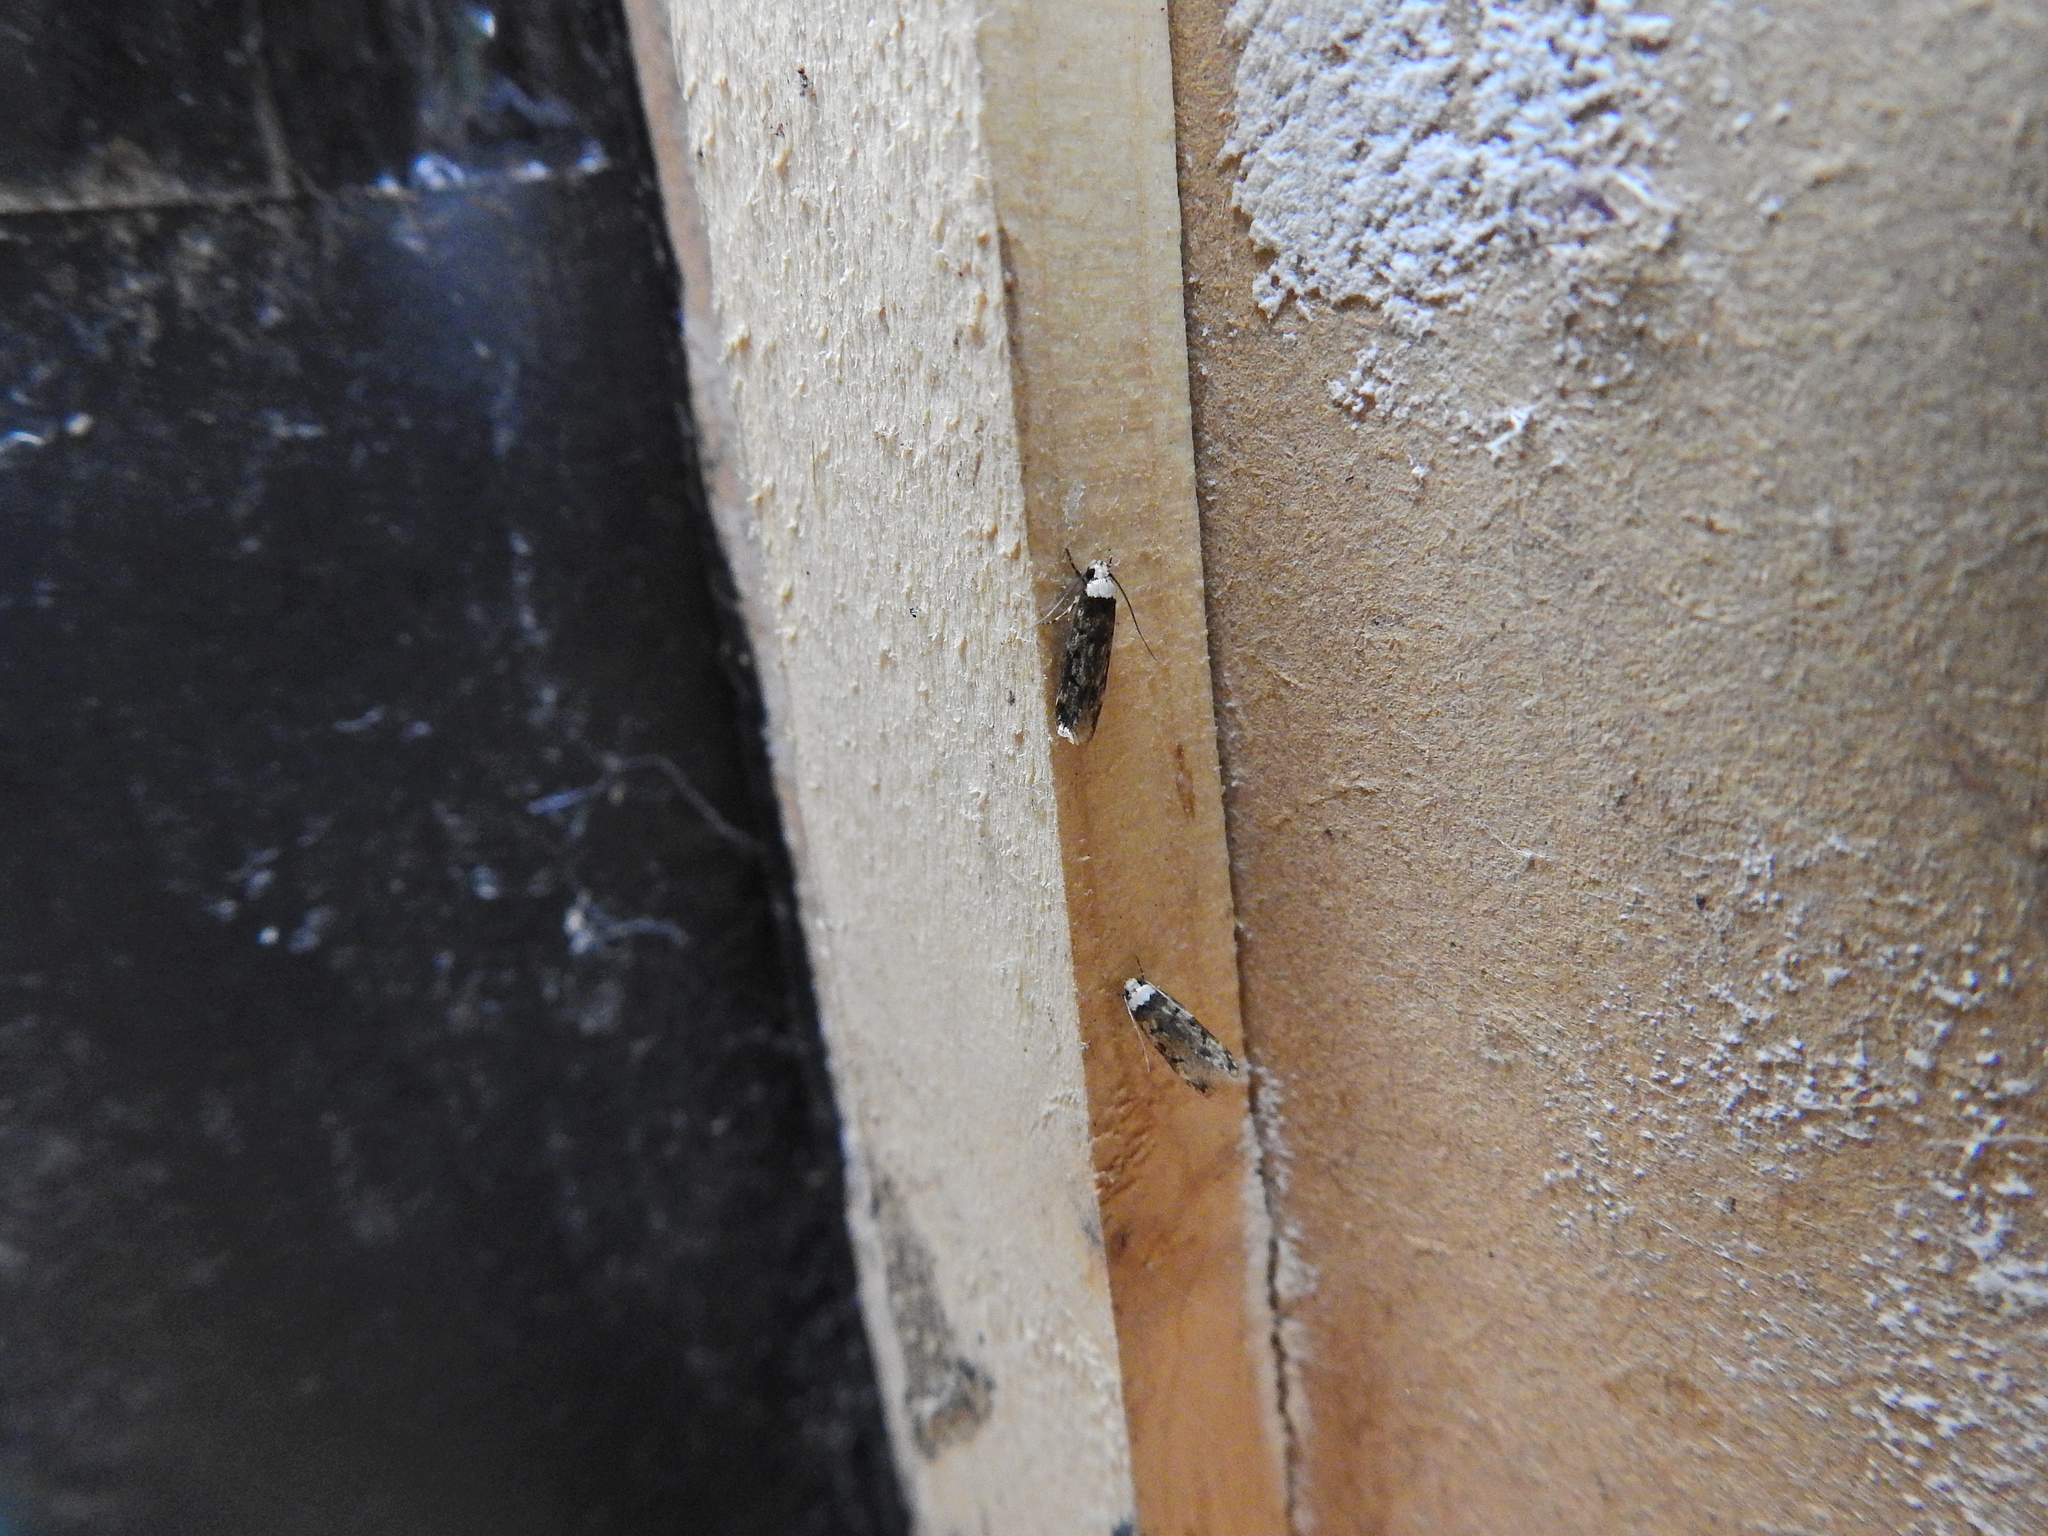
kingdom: Animalia
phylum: Arthropoda
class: Insecta
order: Lepidoptera
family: Oecophoridae
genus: Endrosis
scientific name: Endrosis sarcitrella
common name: White-shouldered house moth
